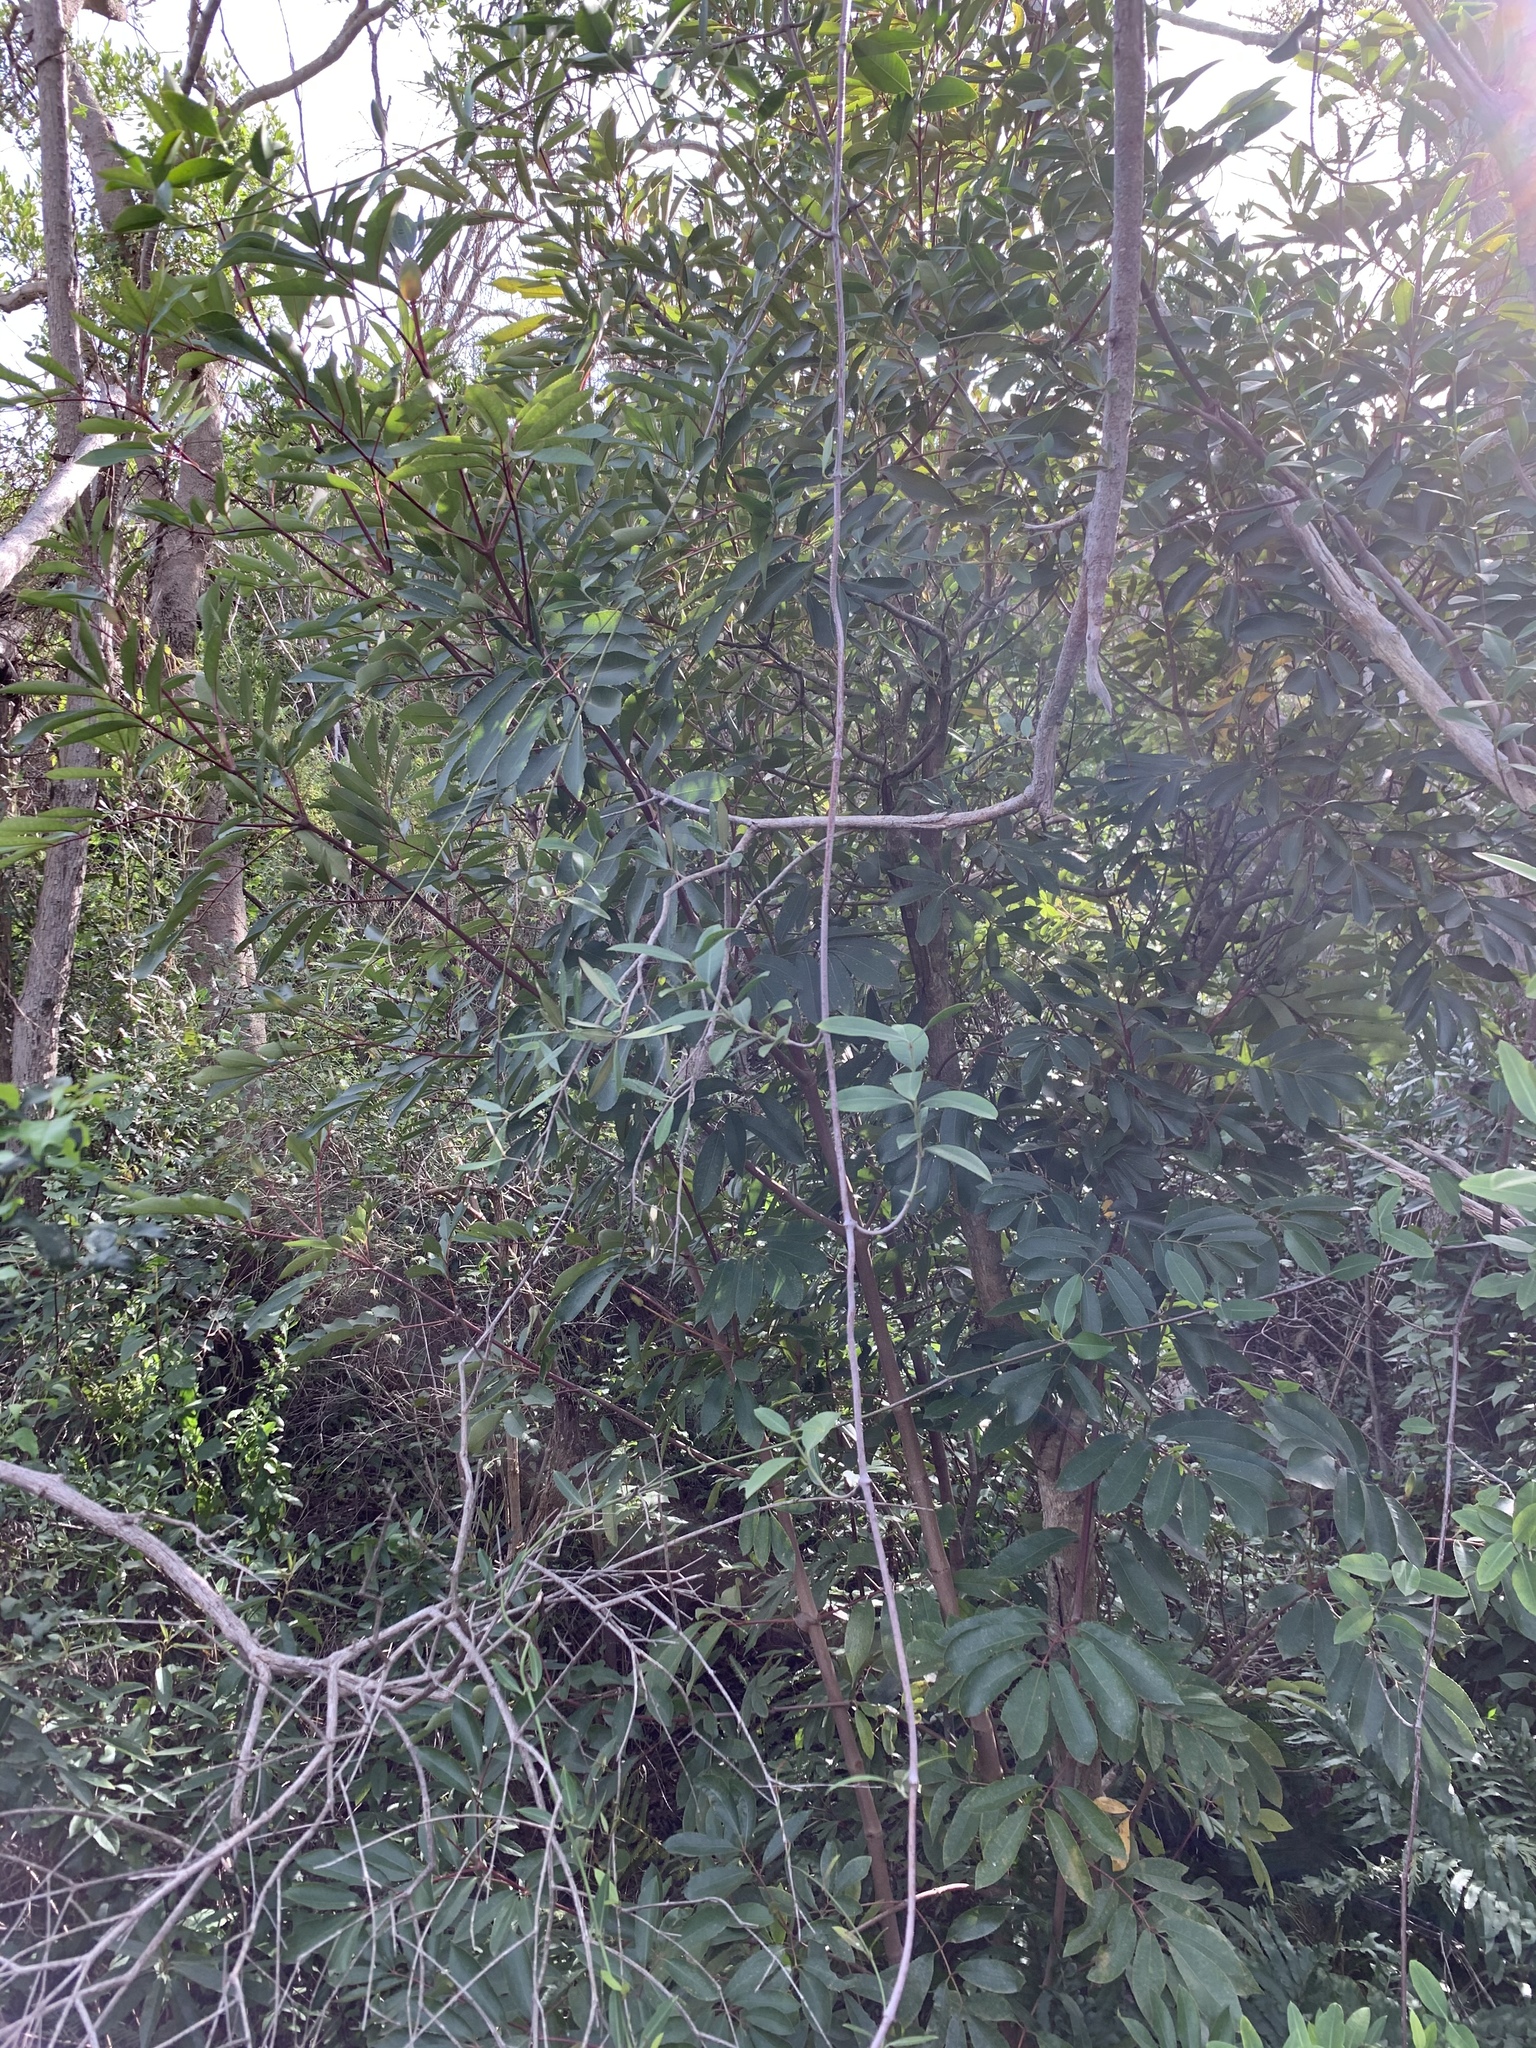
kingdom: Plantae
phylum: Tracheophyta
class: Magnoliopsida
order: Oxalidales
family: Cunoniaceae
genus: Cunonia
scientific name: Cunonia capensis
